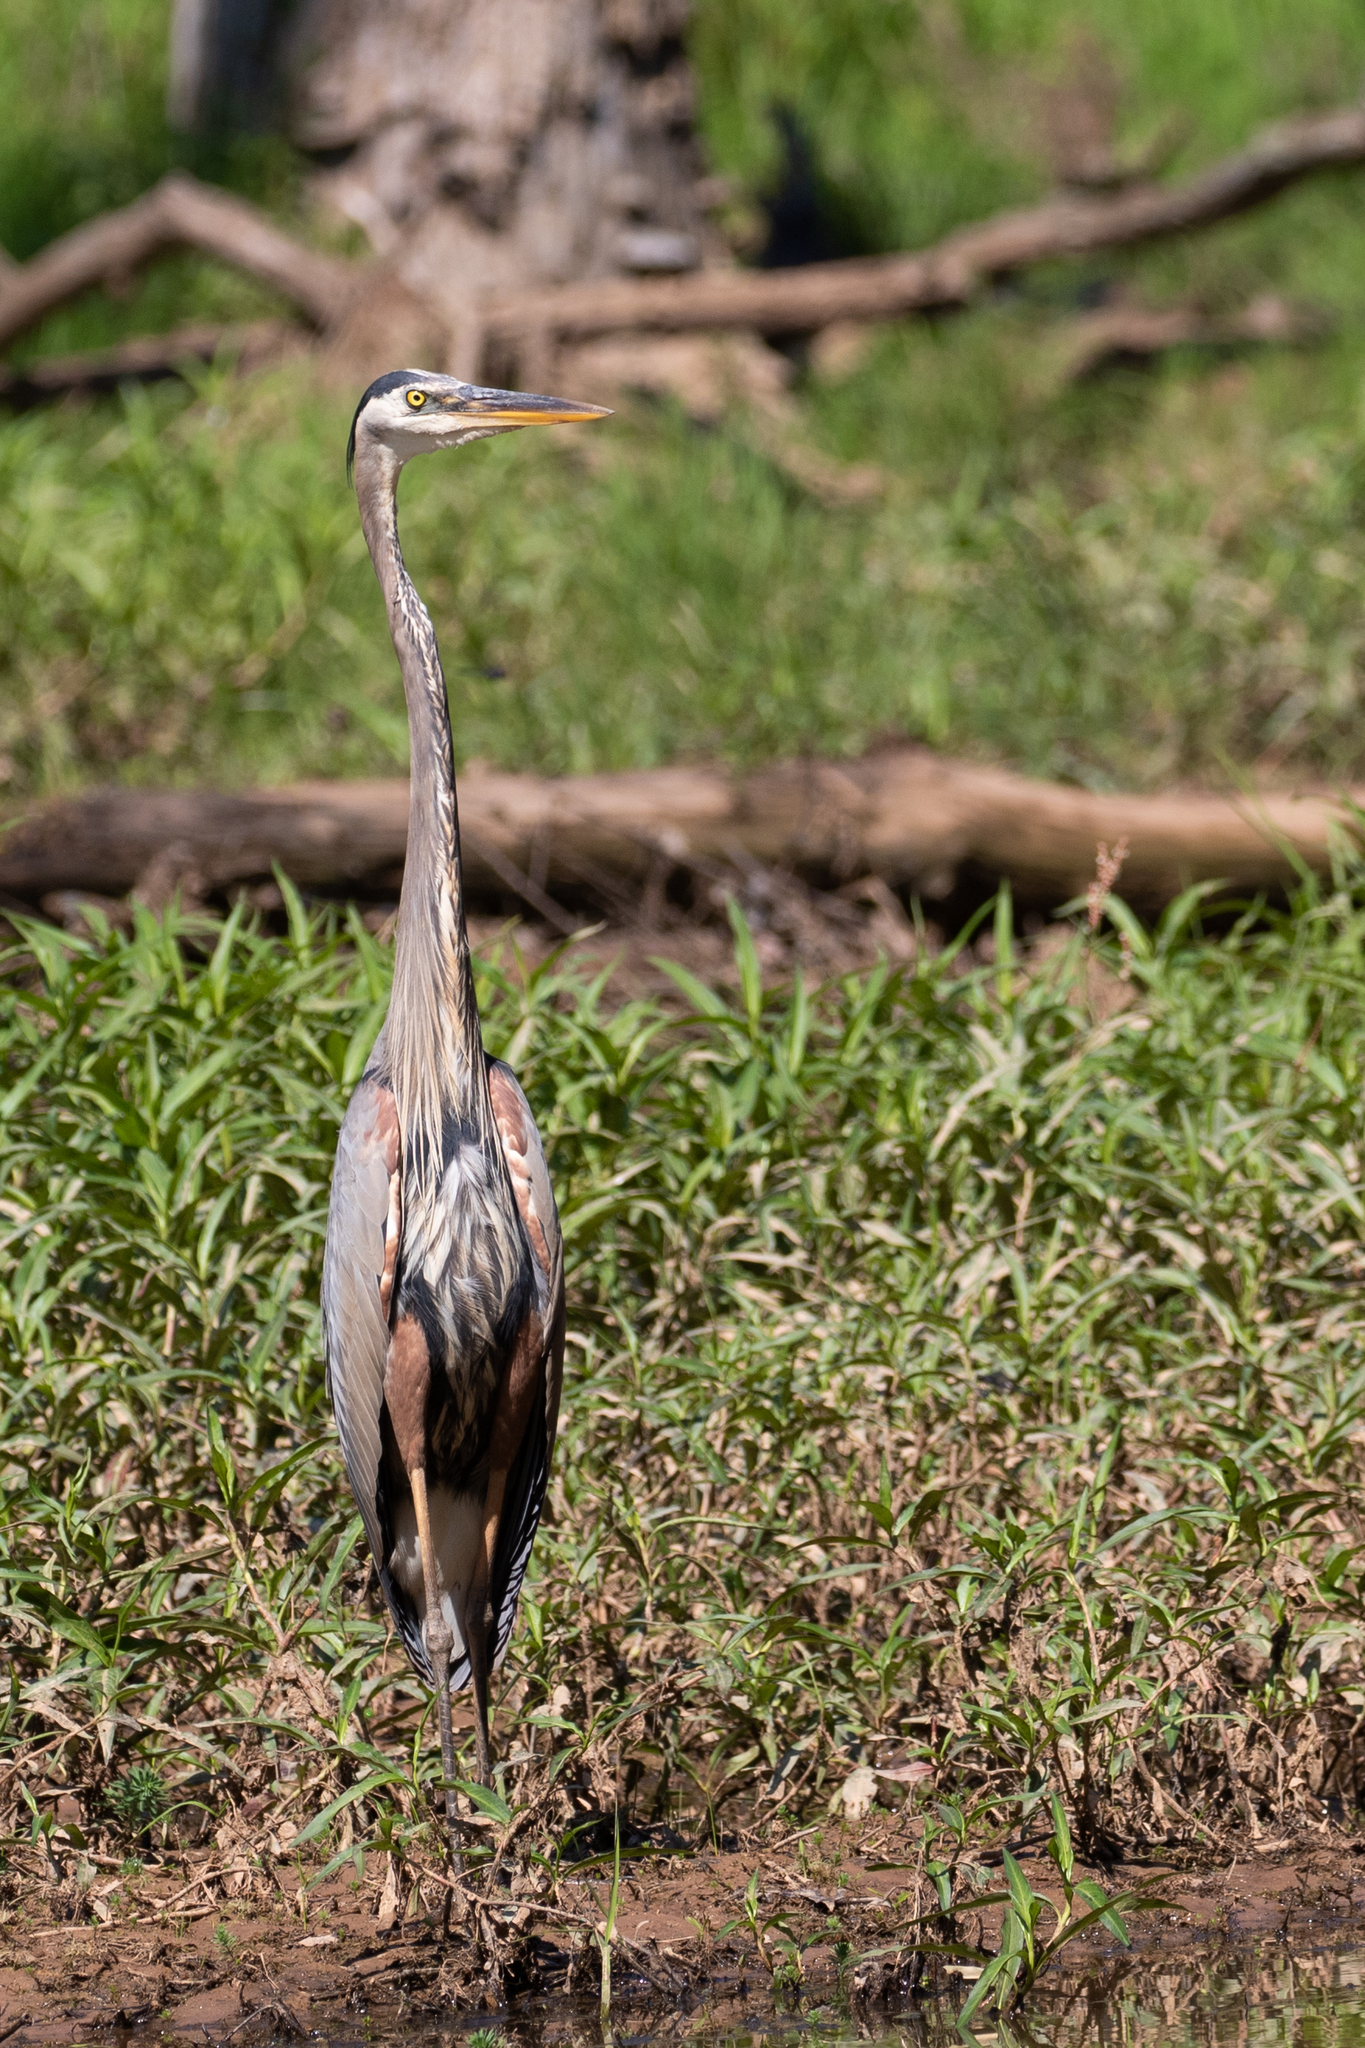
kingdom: Animalia
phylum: Chordata
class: Aves
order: Pelecaniformes
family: Ardeidae
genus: Ardea
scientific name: Ardea herodias
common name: Great blue heron
